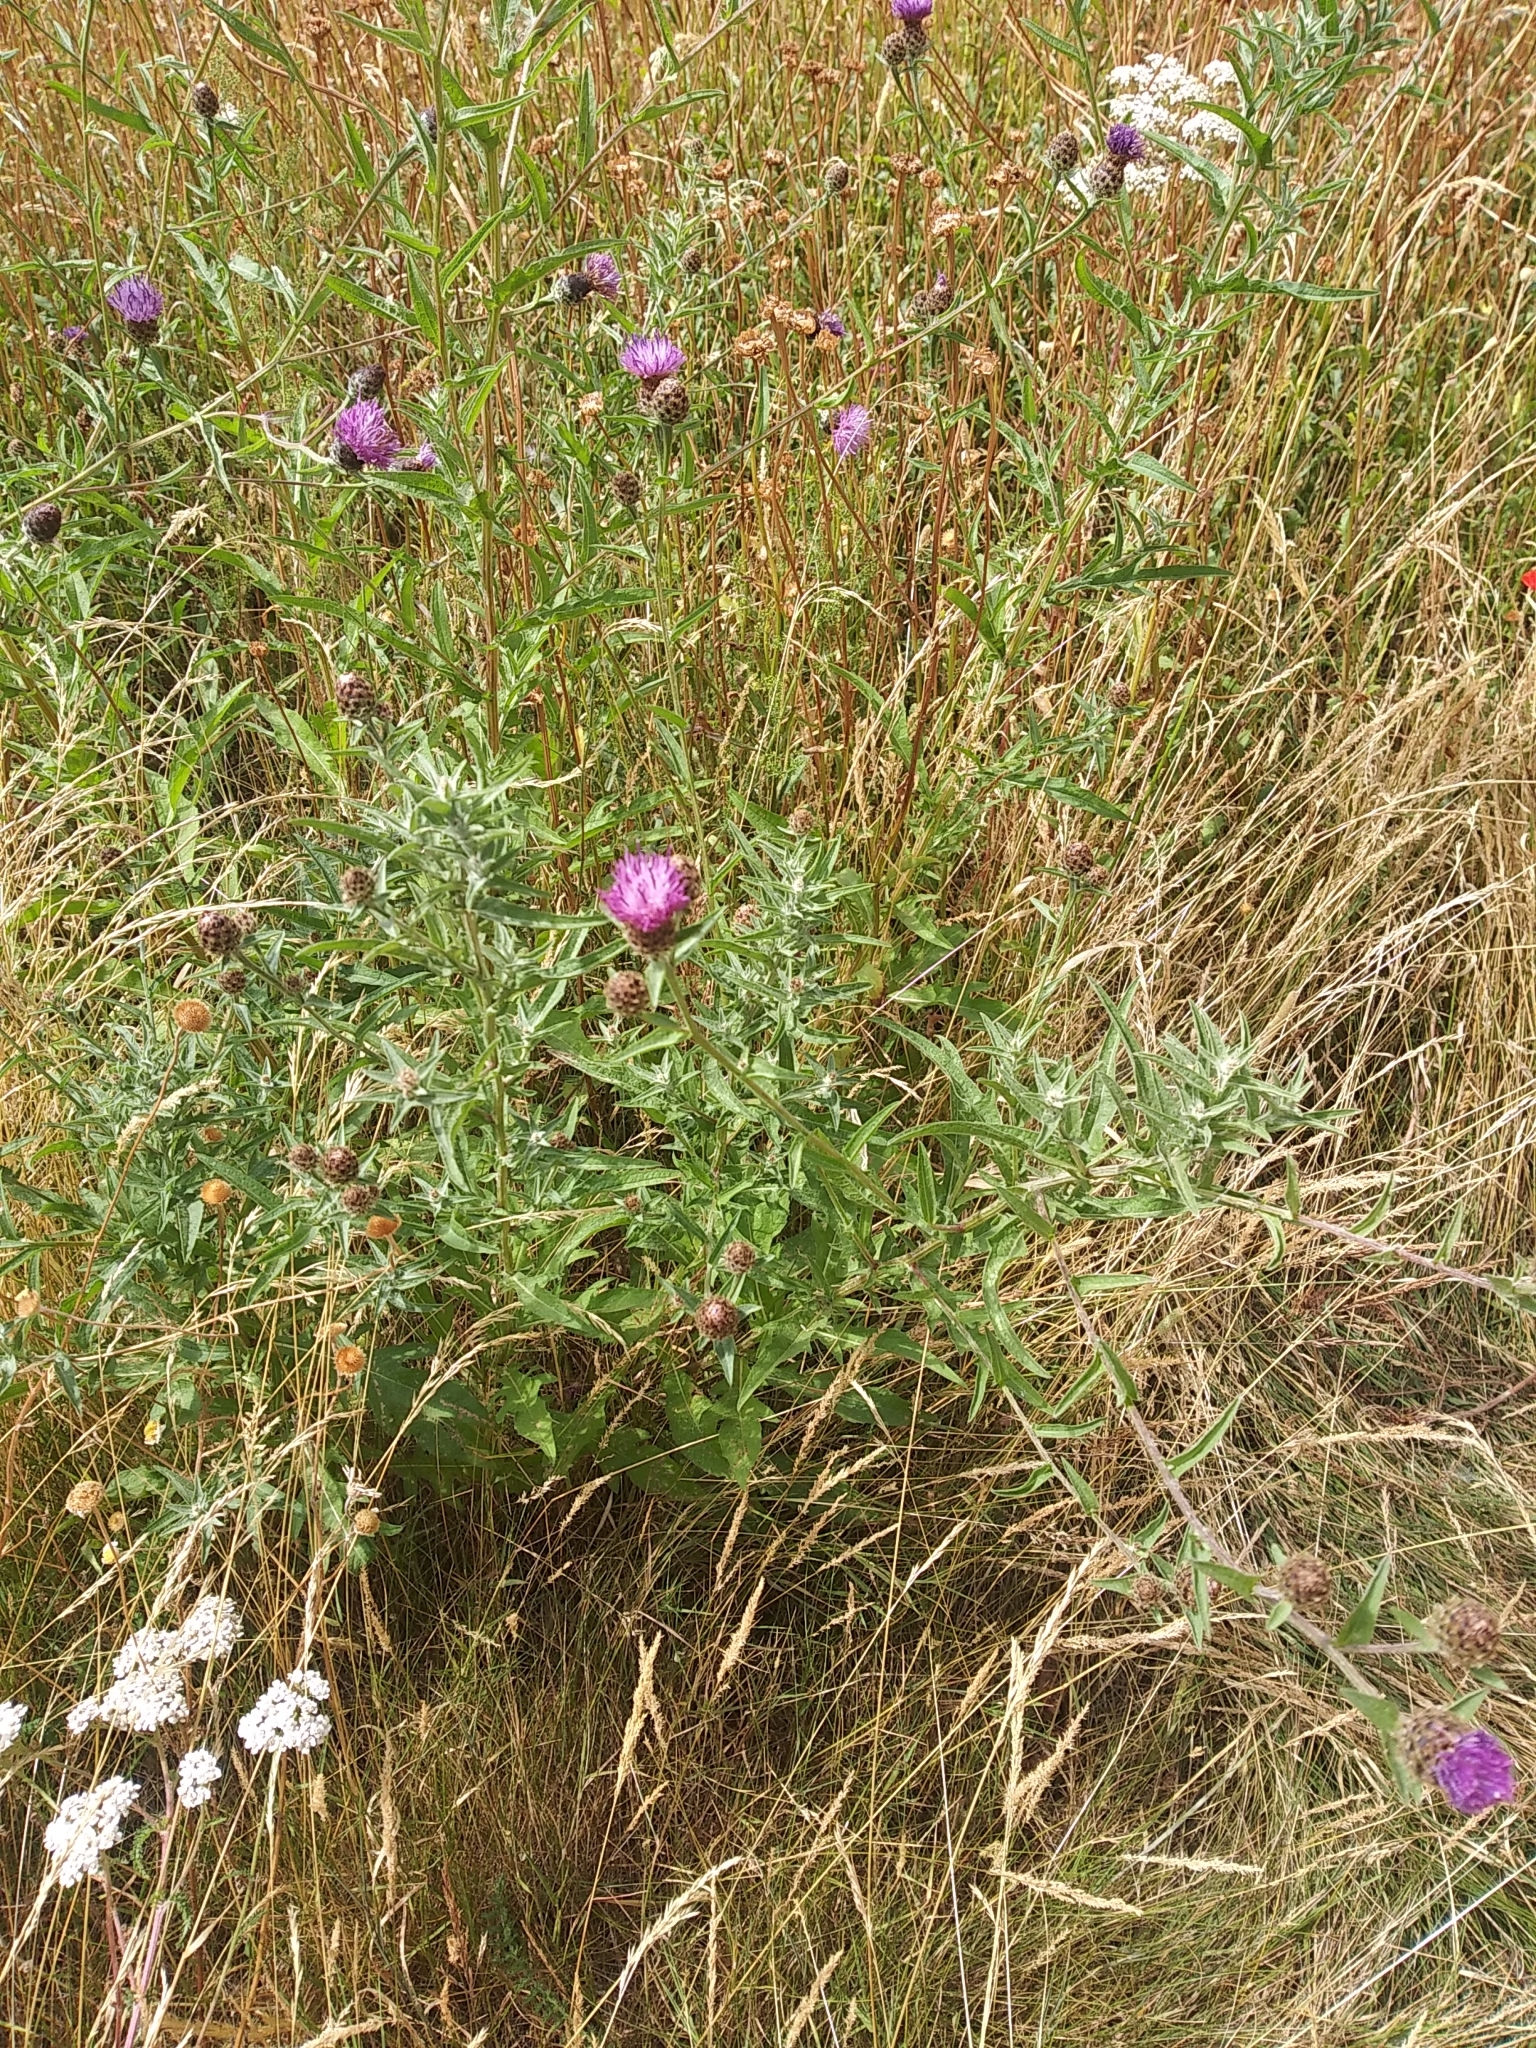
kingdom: Plantae
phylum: Tracheophyta
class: Magnoliopsida
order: Asterales
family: Asteraceae
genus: Centaurea
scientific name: Centaurea nigra
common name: Lesser knapweed
